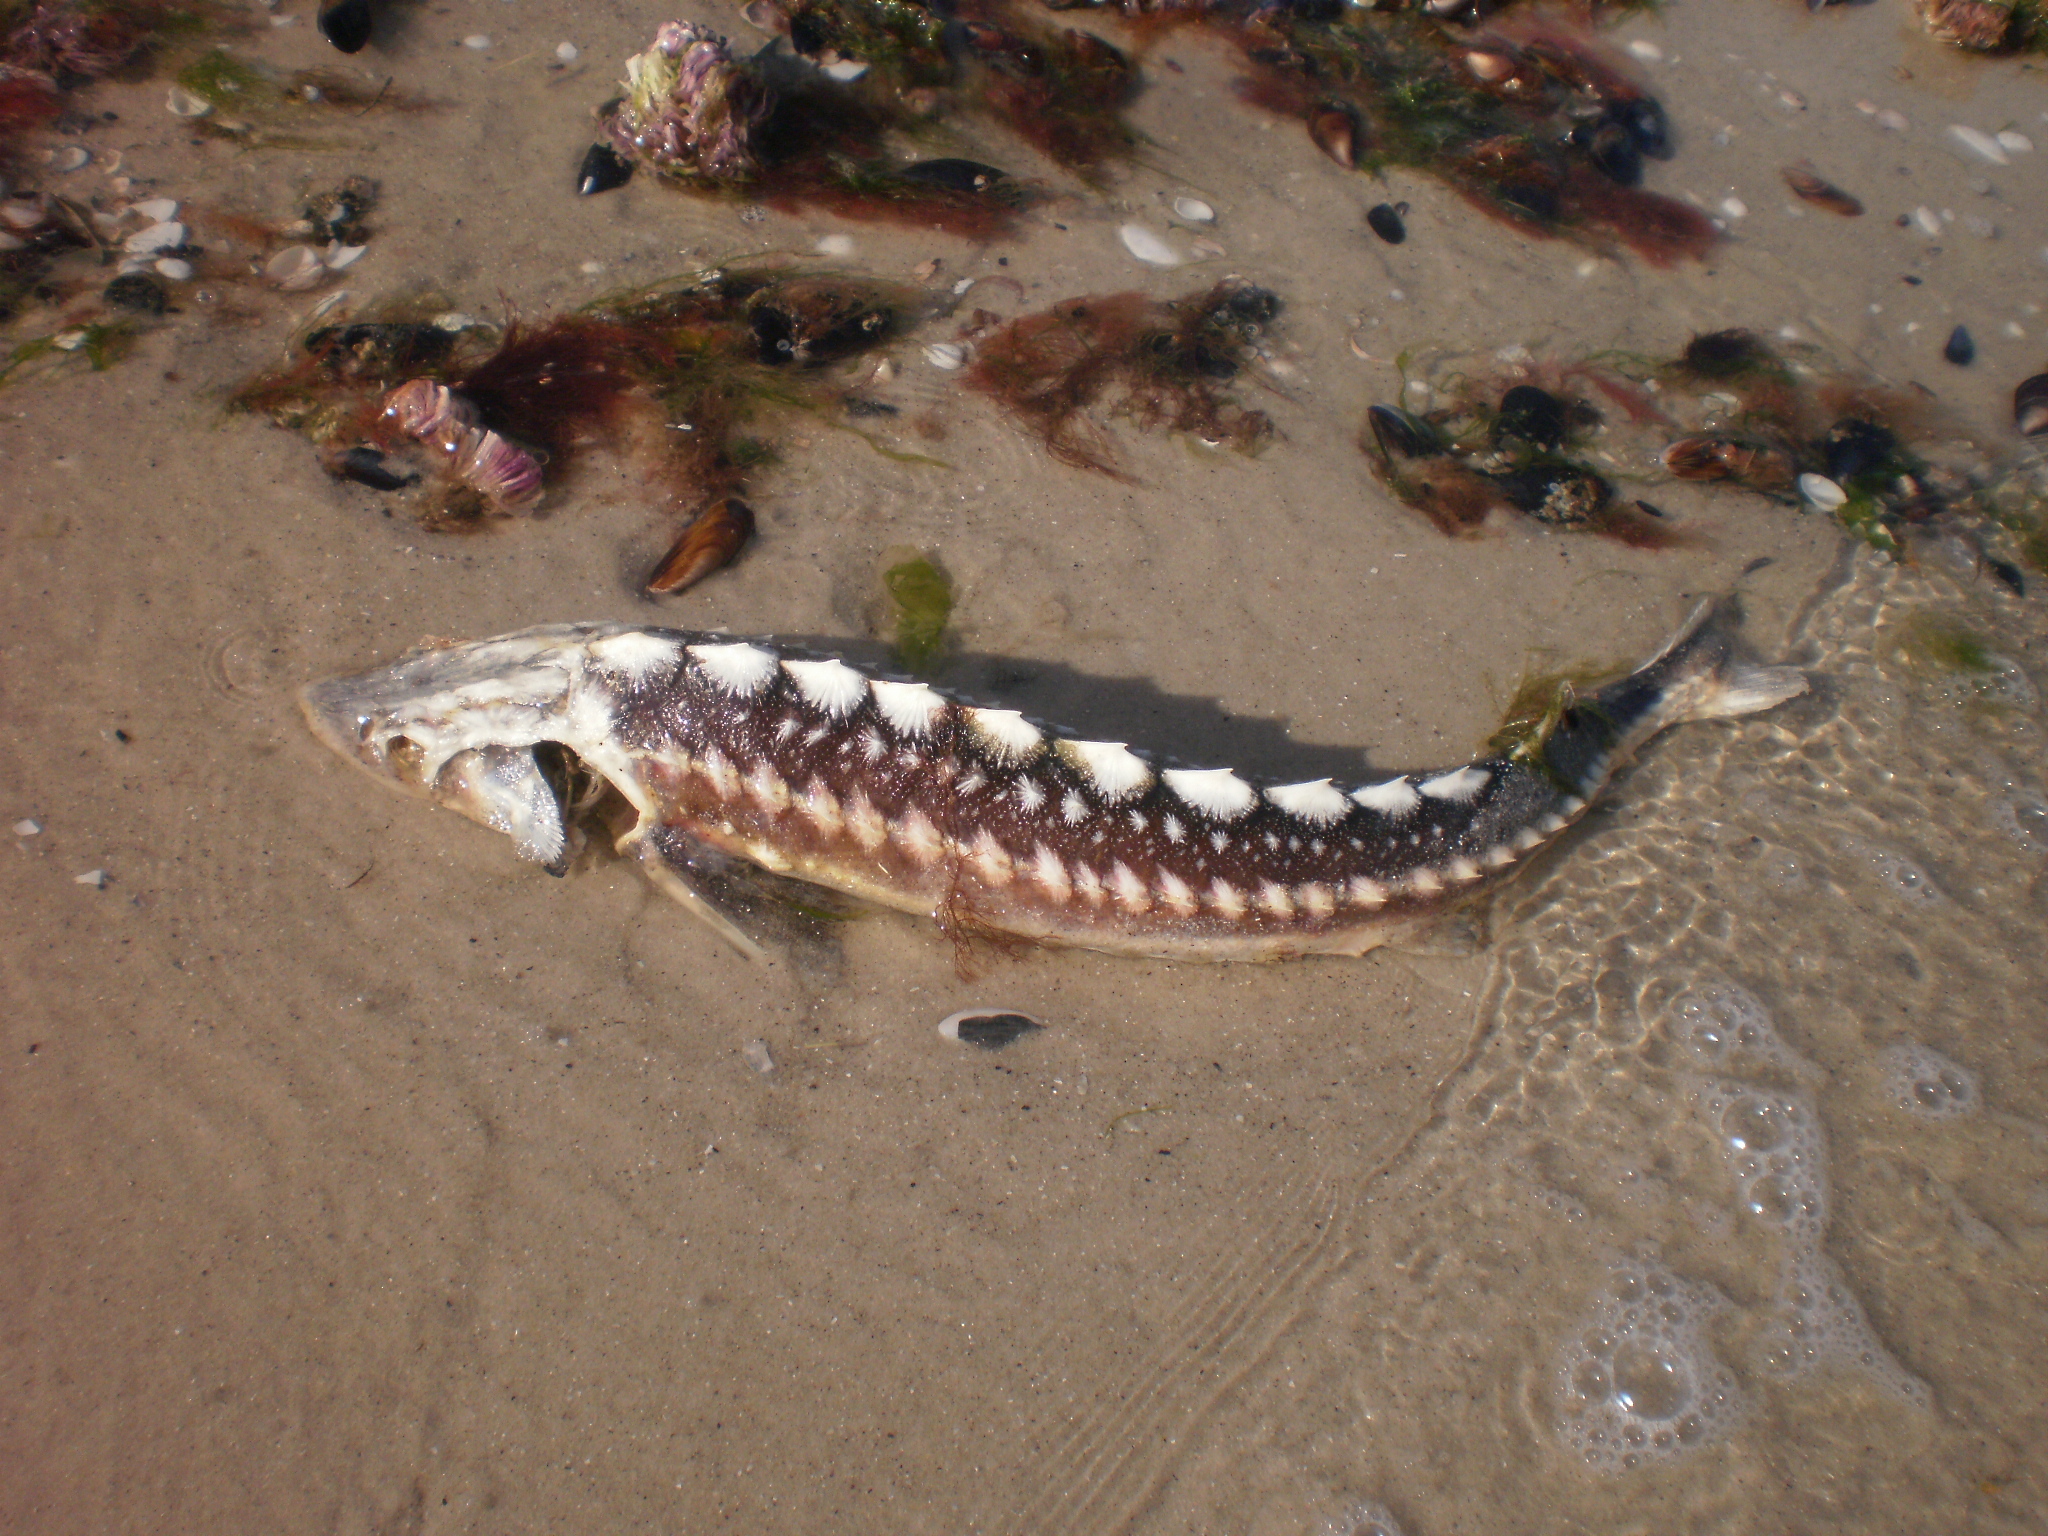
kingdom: Animalia
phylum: Chordata
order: Acipenseriformes
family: Acipenseridae
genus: Acipenser
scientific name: Acipenser gueldenstaedtii
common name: Russian sturgeon
